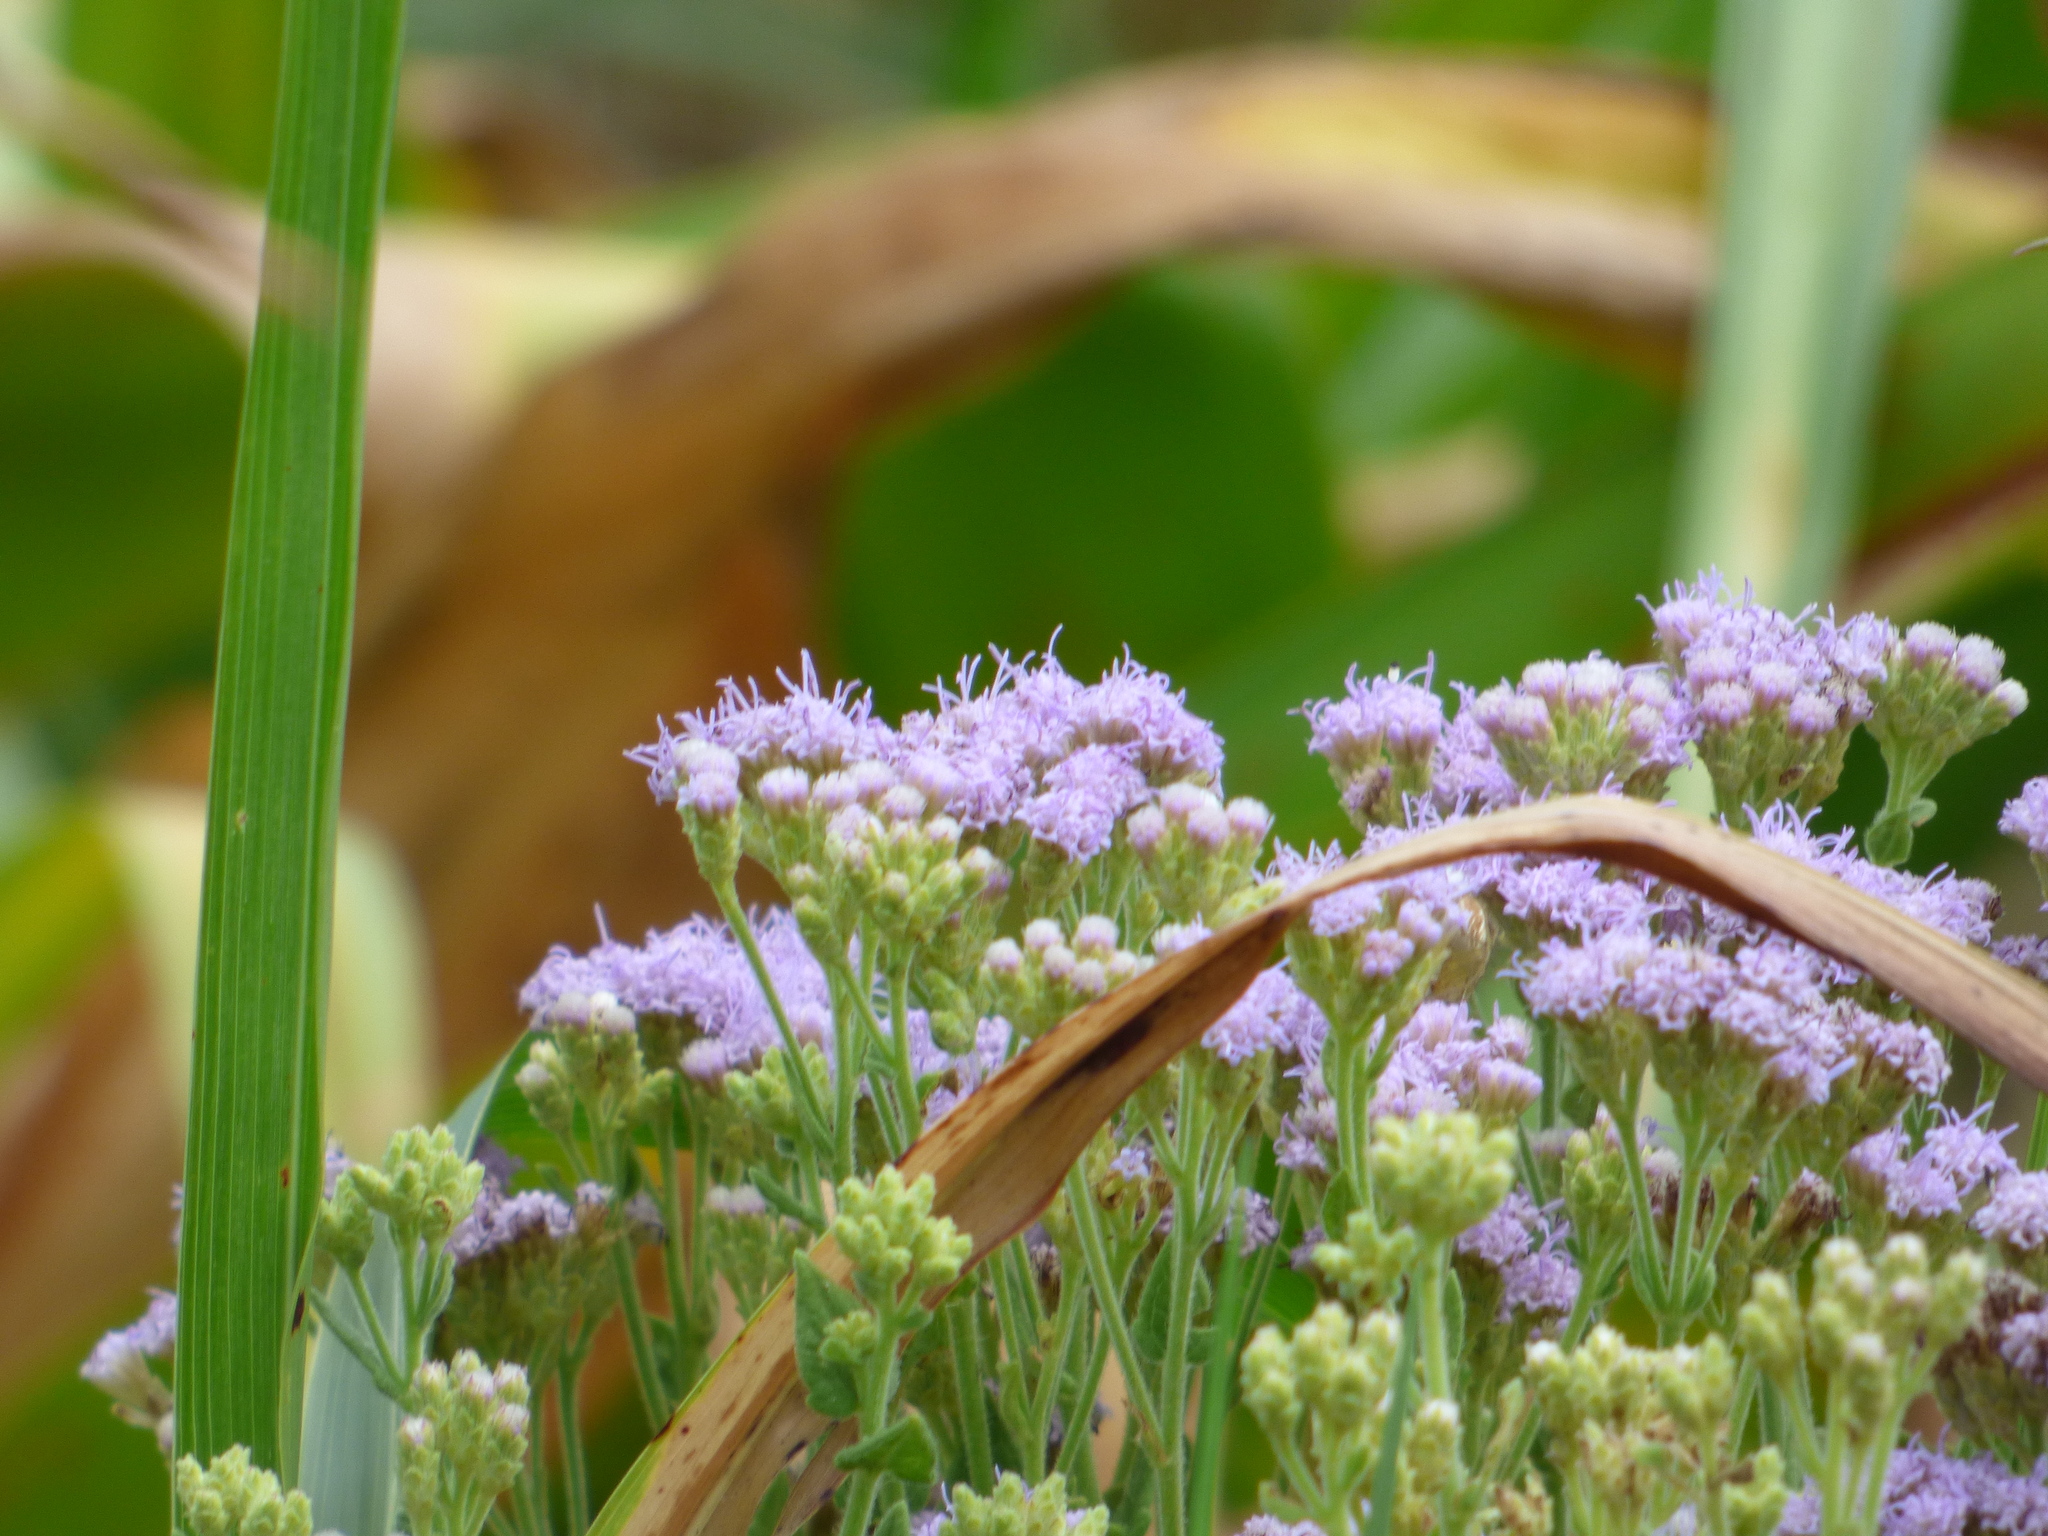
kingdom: Plantae
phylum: Tracheophyta
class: Magnoliopsida
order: Asterales
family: Asteraceae
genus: Chromolaena
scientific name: Chromolaena hirsuta
